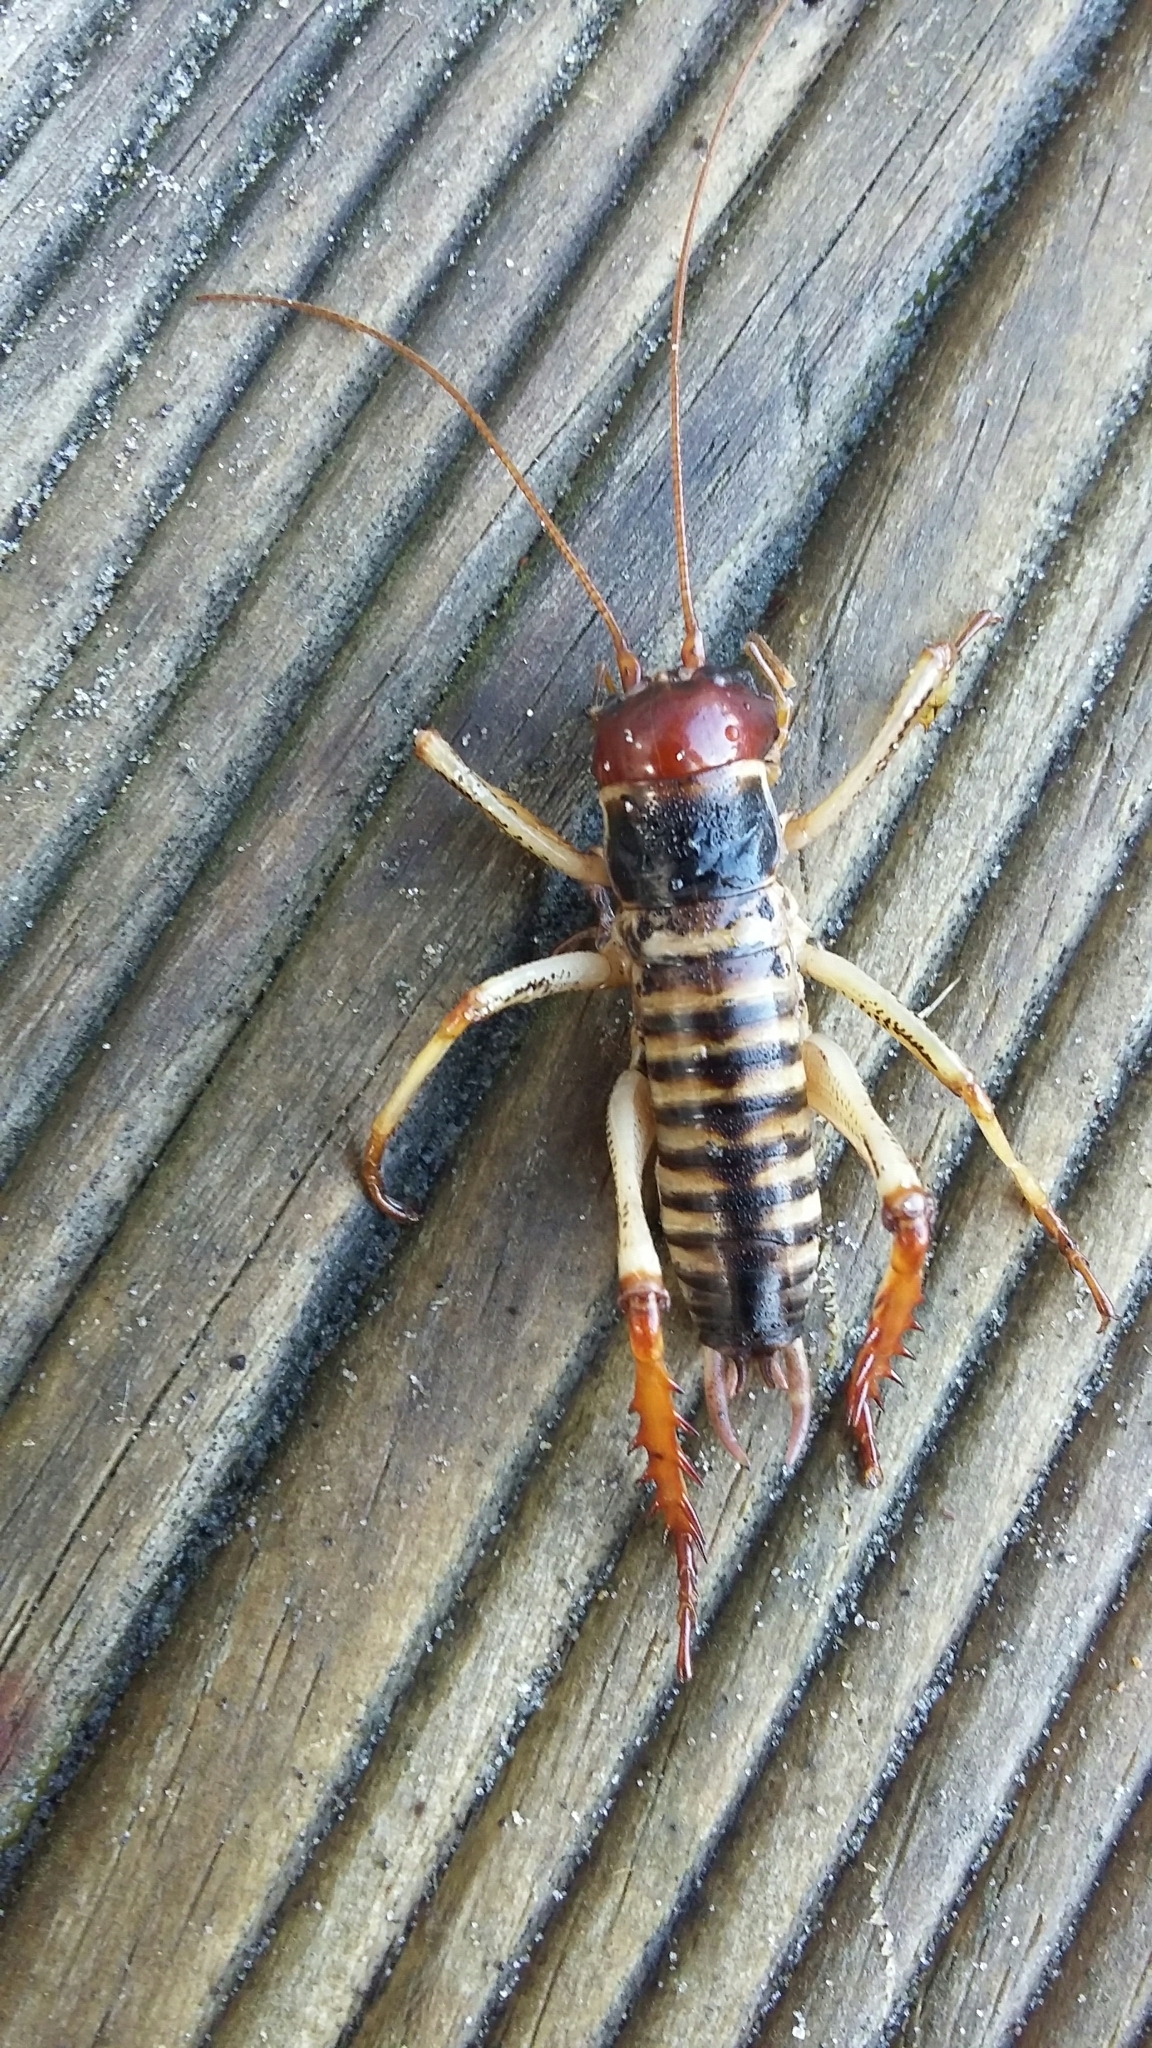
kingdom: Animalia
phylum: Arthropoda
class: Insecta
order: Orthoptera
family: Anostostomatidae
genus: Hemideina
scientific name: Hemideina crassidens
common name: Wellington tree weta
